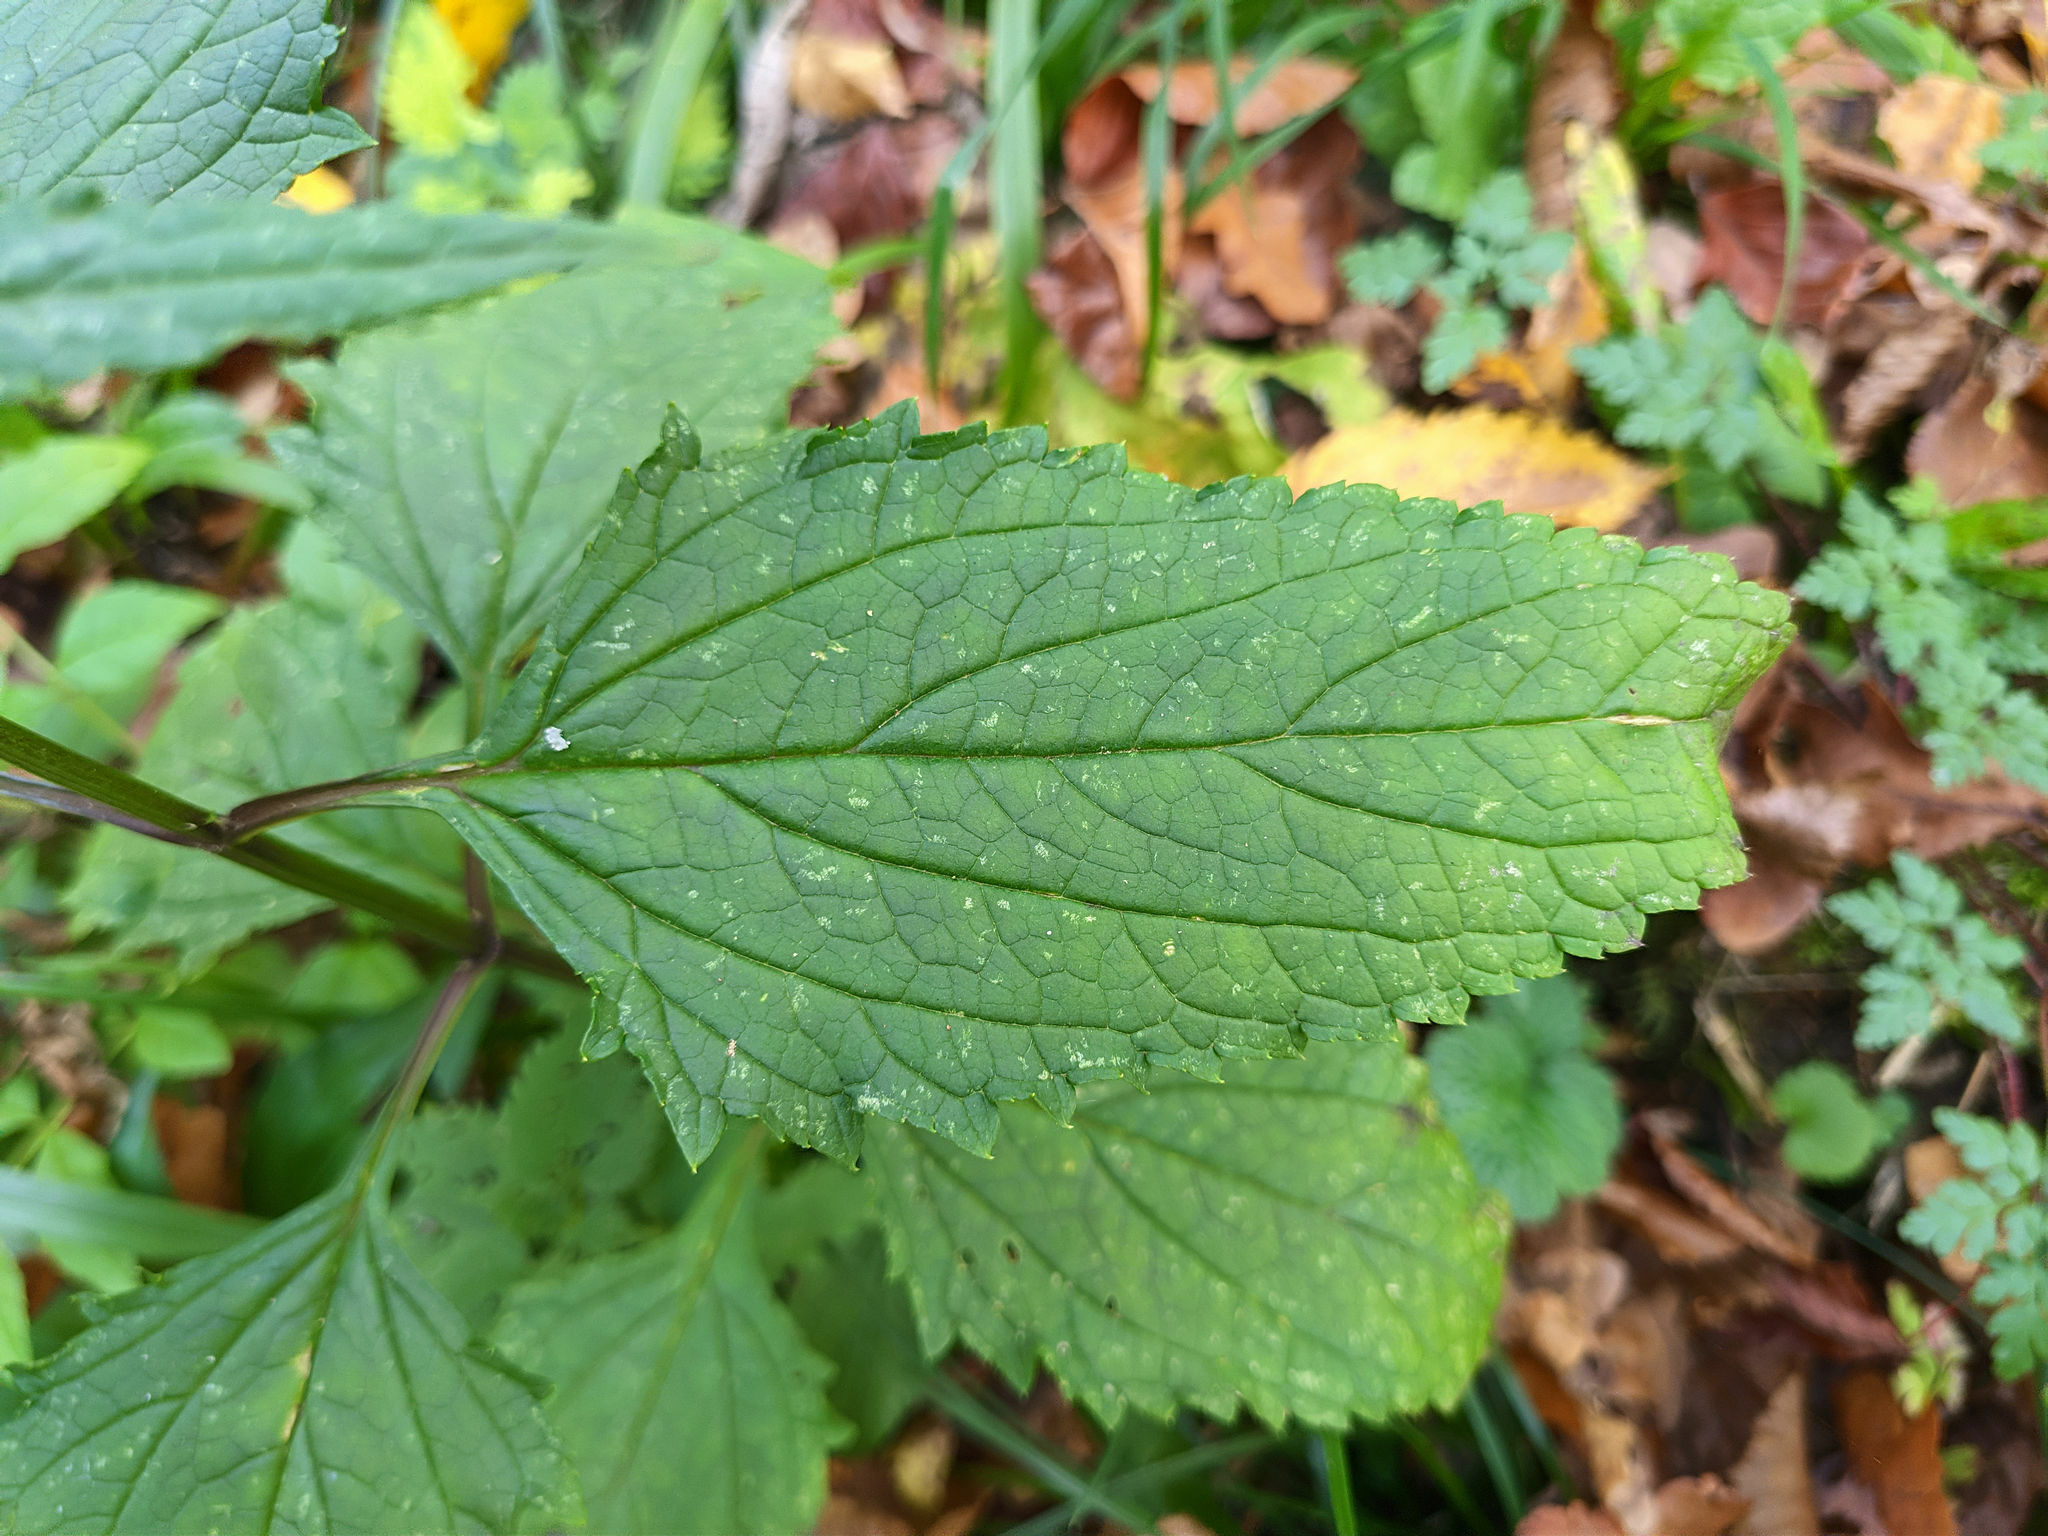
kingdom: Plantae
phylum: Tracheophyta
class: Magnoliopsida
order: Lamiales
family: Scrophulariaceae
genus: Scrophularia
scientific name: Scrophularia nodosa
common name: Common figwort
